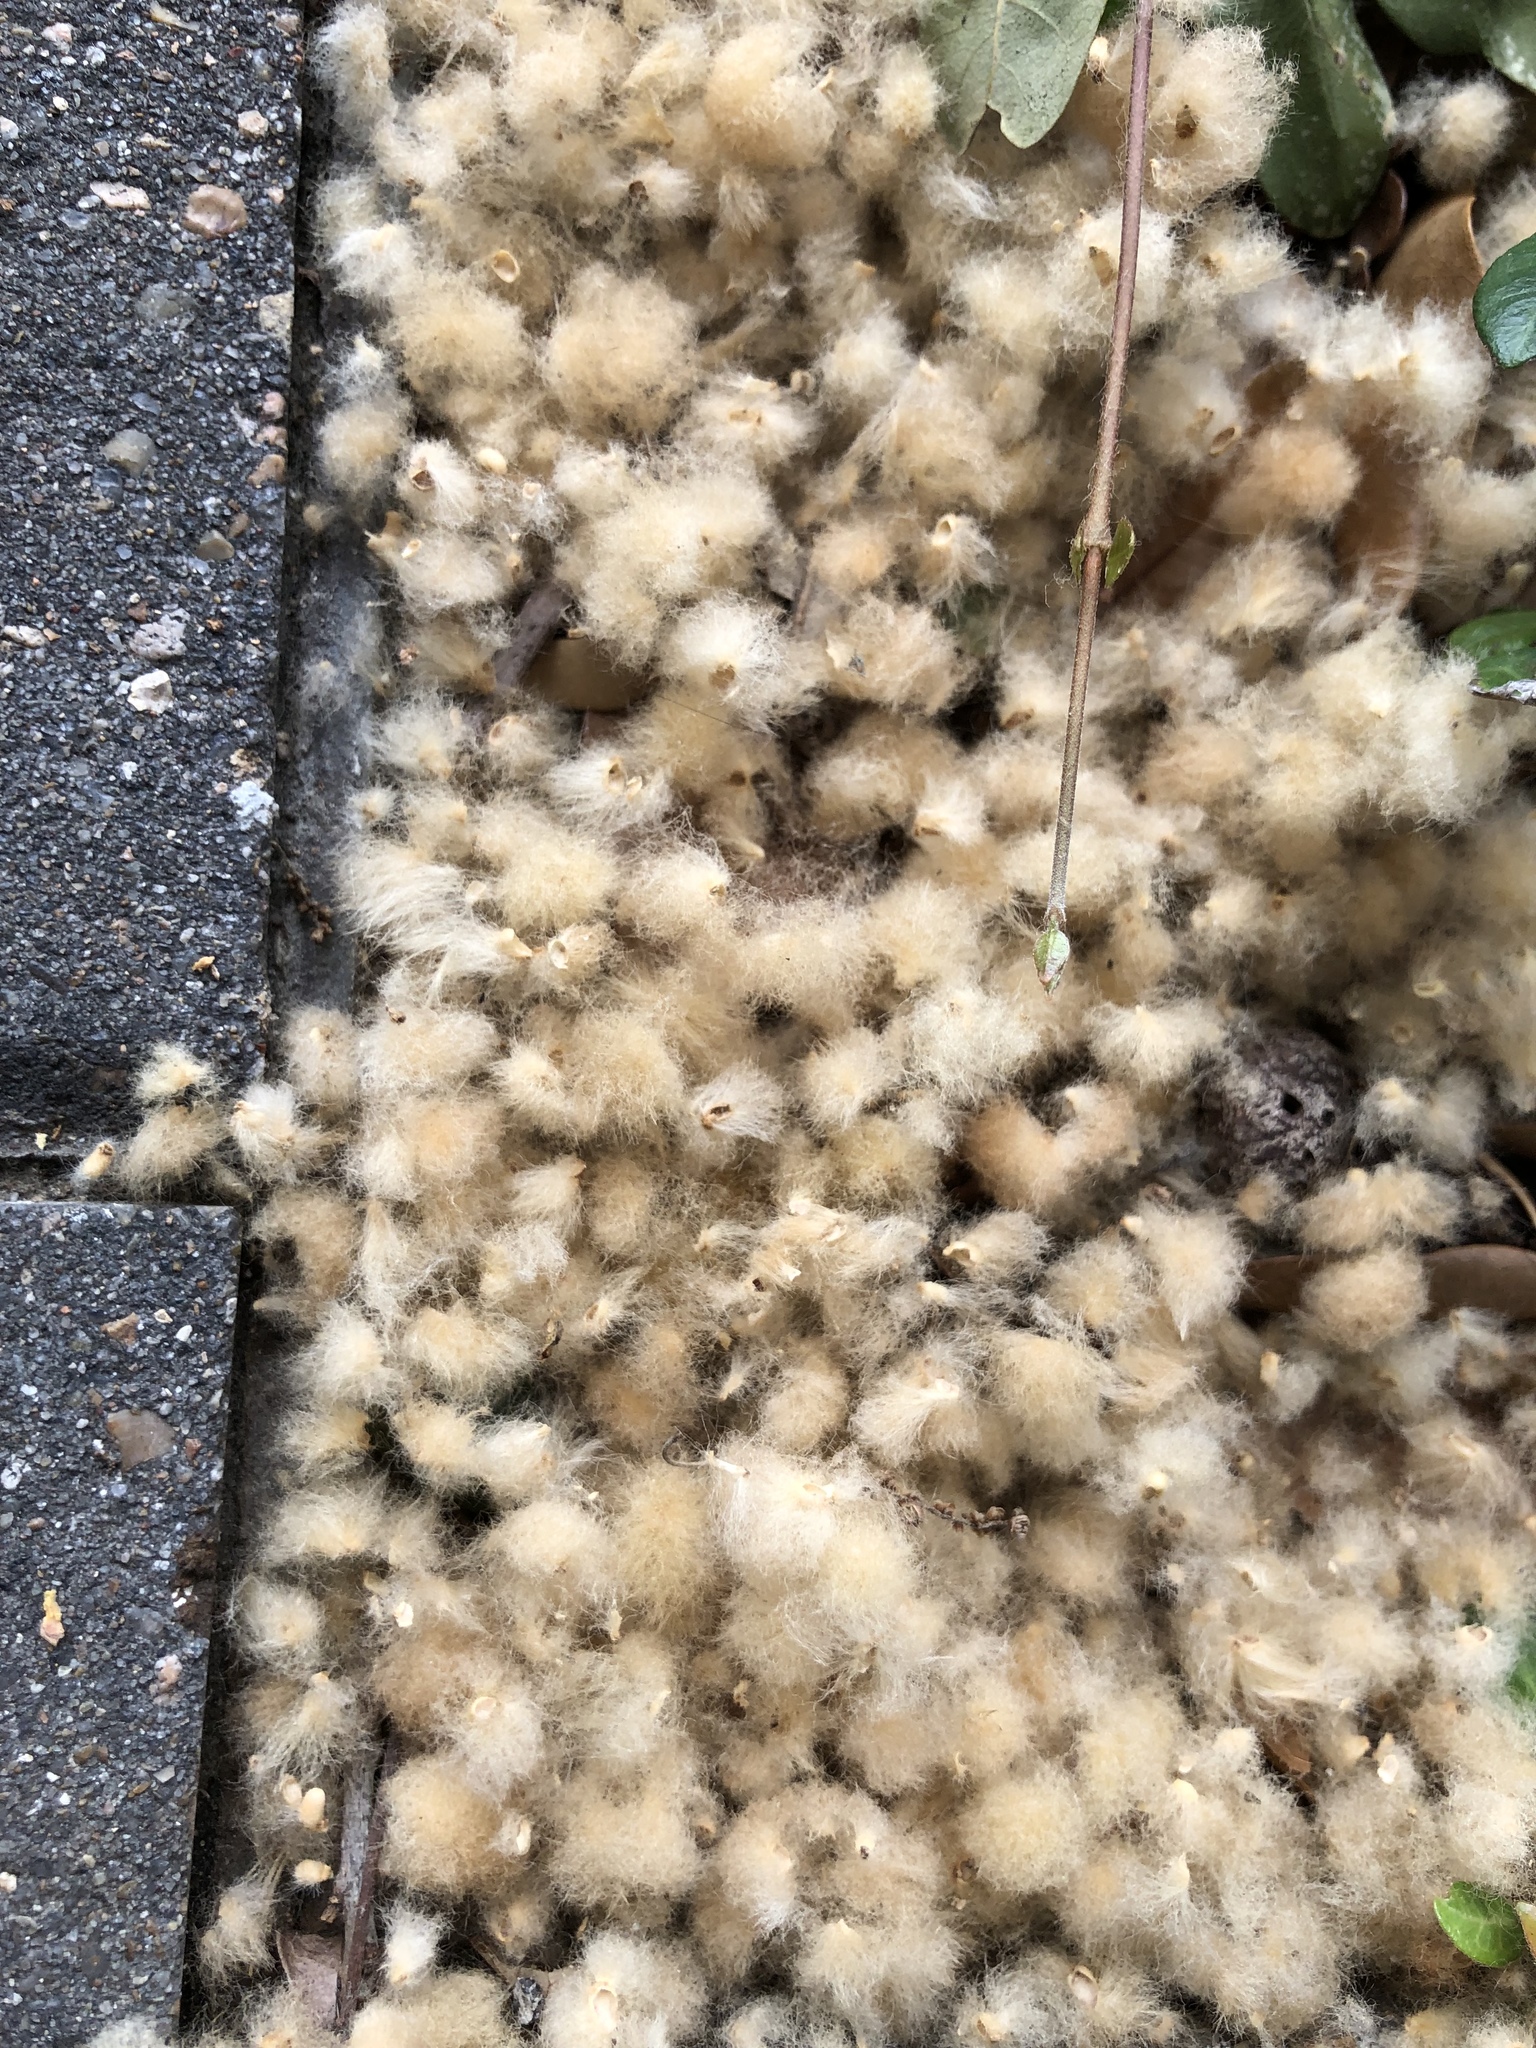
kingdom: Animalia
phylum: Arthropoda
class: Insecta
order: Hymenoptera
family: Cynipidae
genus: Andricus
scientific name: Andricus Druon quercuslanigerum
